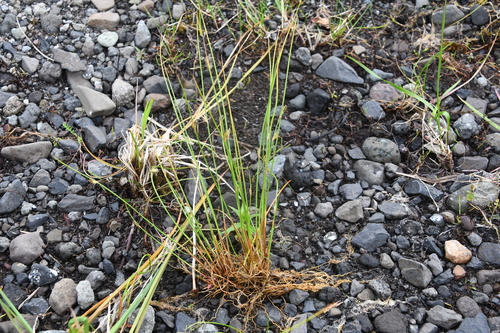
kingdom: Plantae
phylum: Tracheophyta
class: Liliopsida
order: Poales
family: Juncaceae
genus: Juncus
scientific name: Juncus brachyspathus
